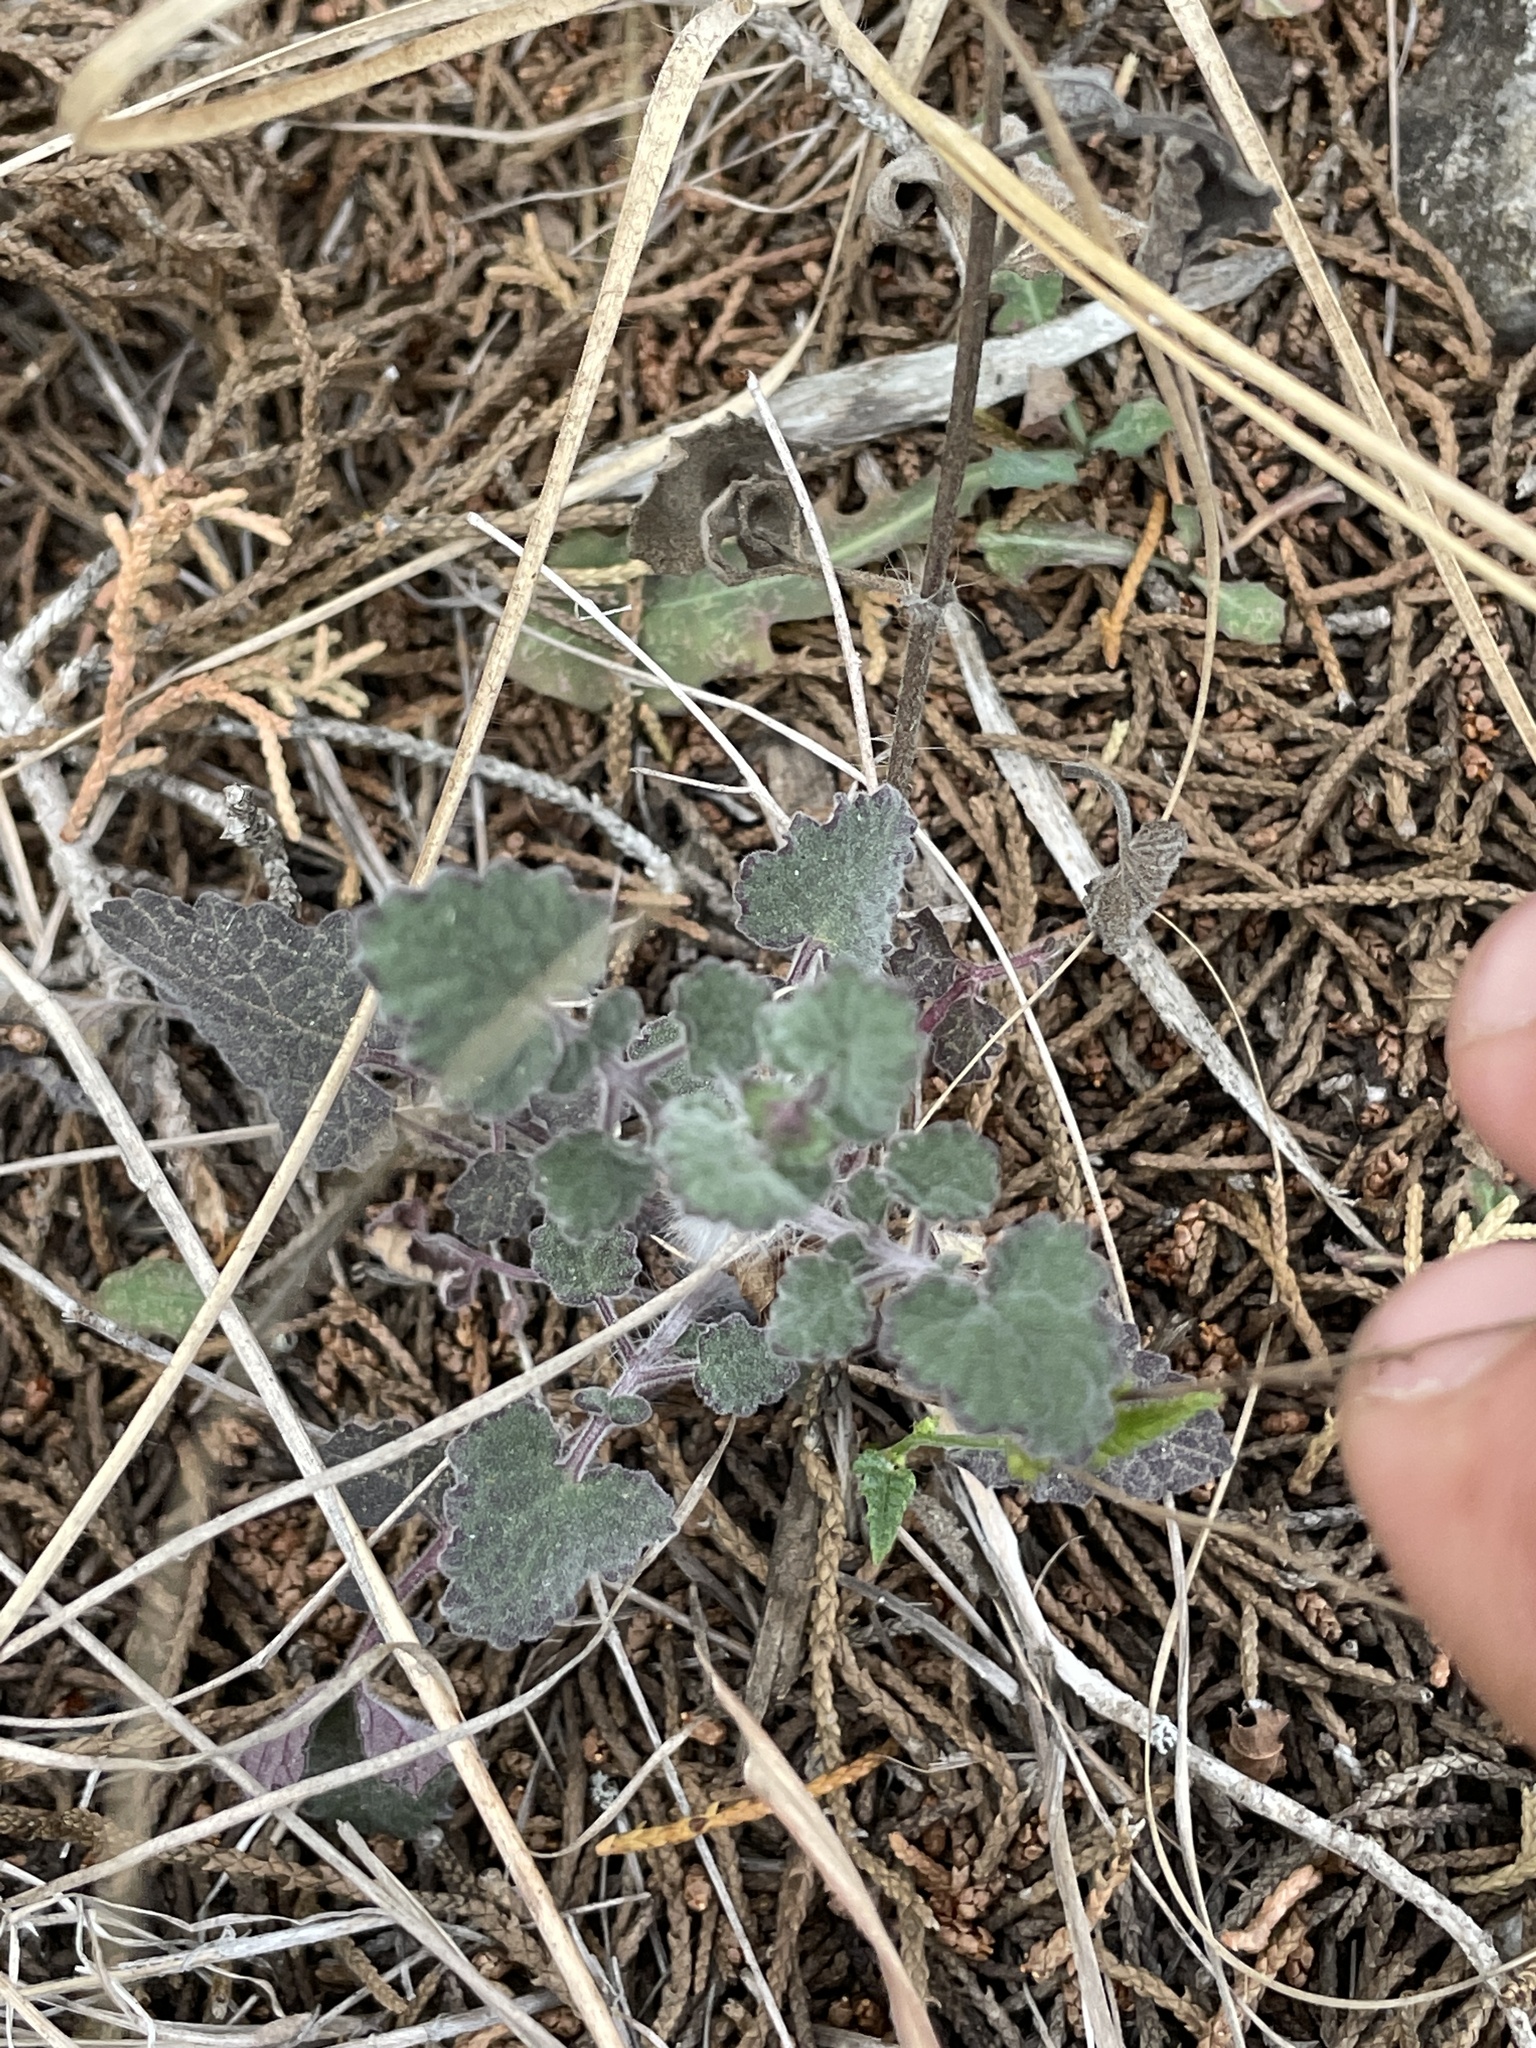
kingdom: Plantae
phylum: Tracheophyta
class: Magnoliopsida
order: Lamiales
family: Lamiaceae
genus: Salvia
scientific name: Salvia roemeriana
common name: Cedar sage
